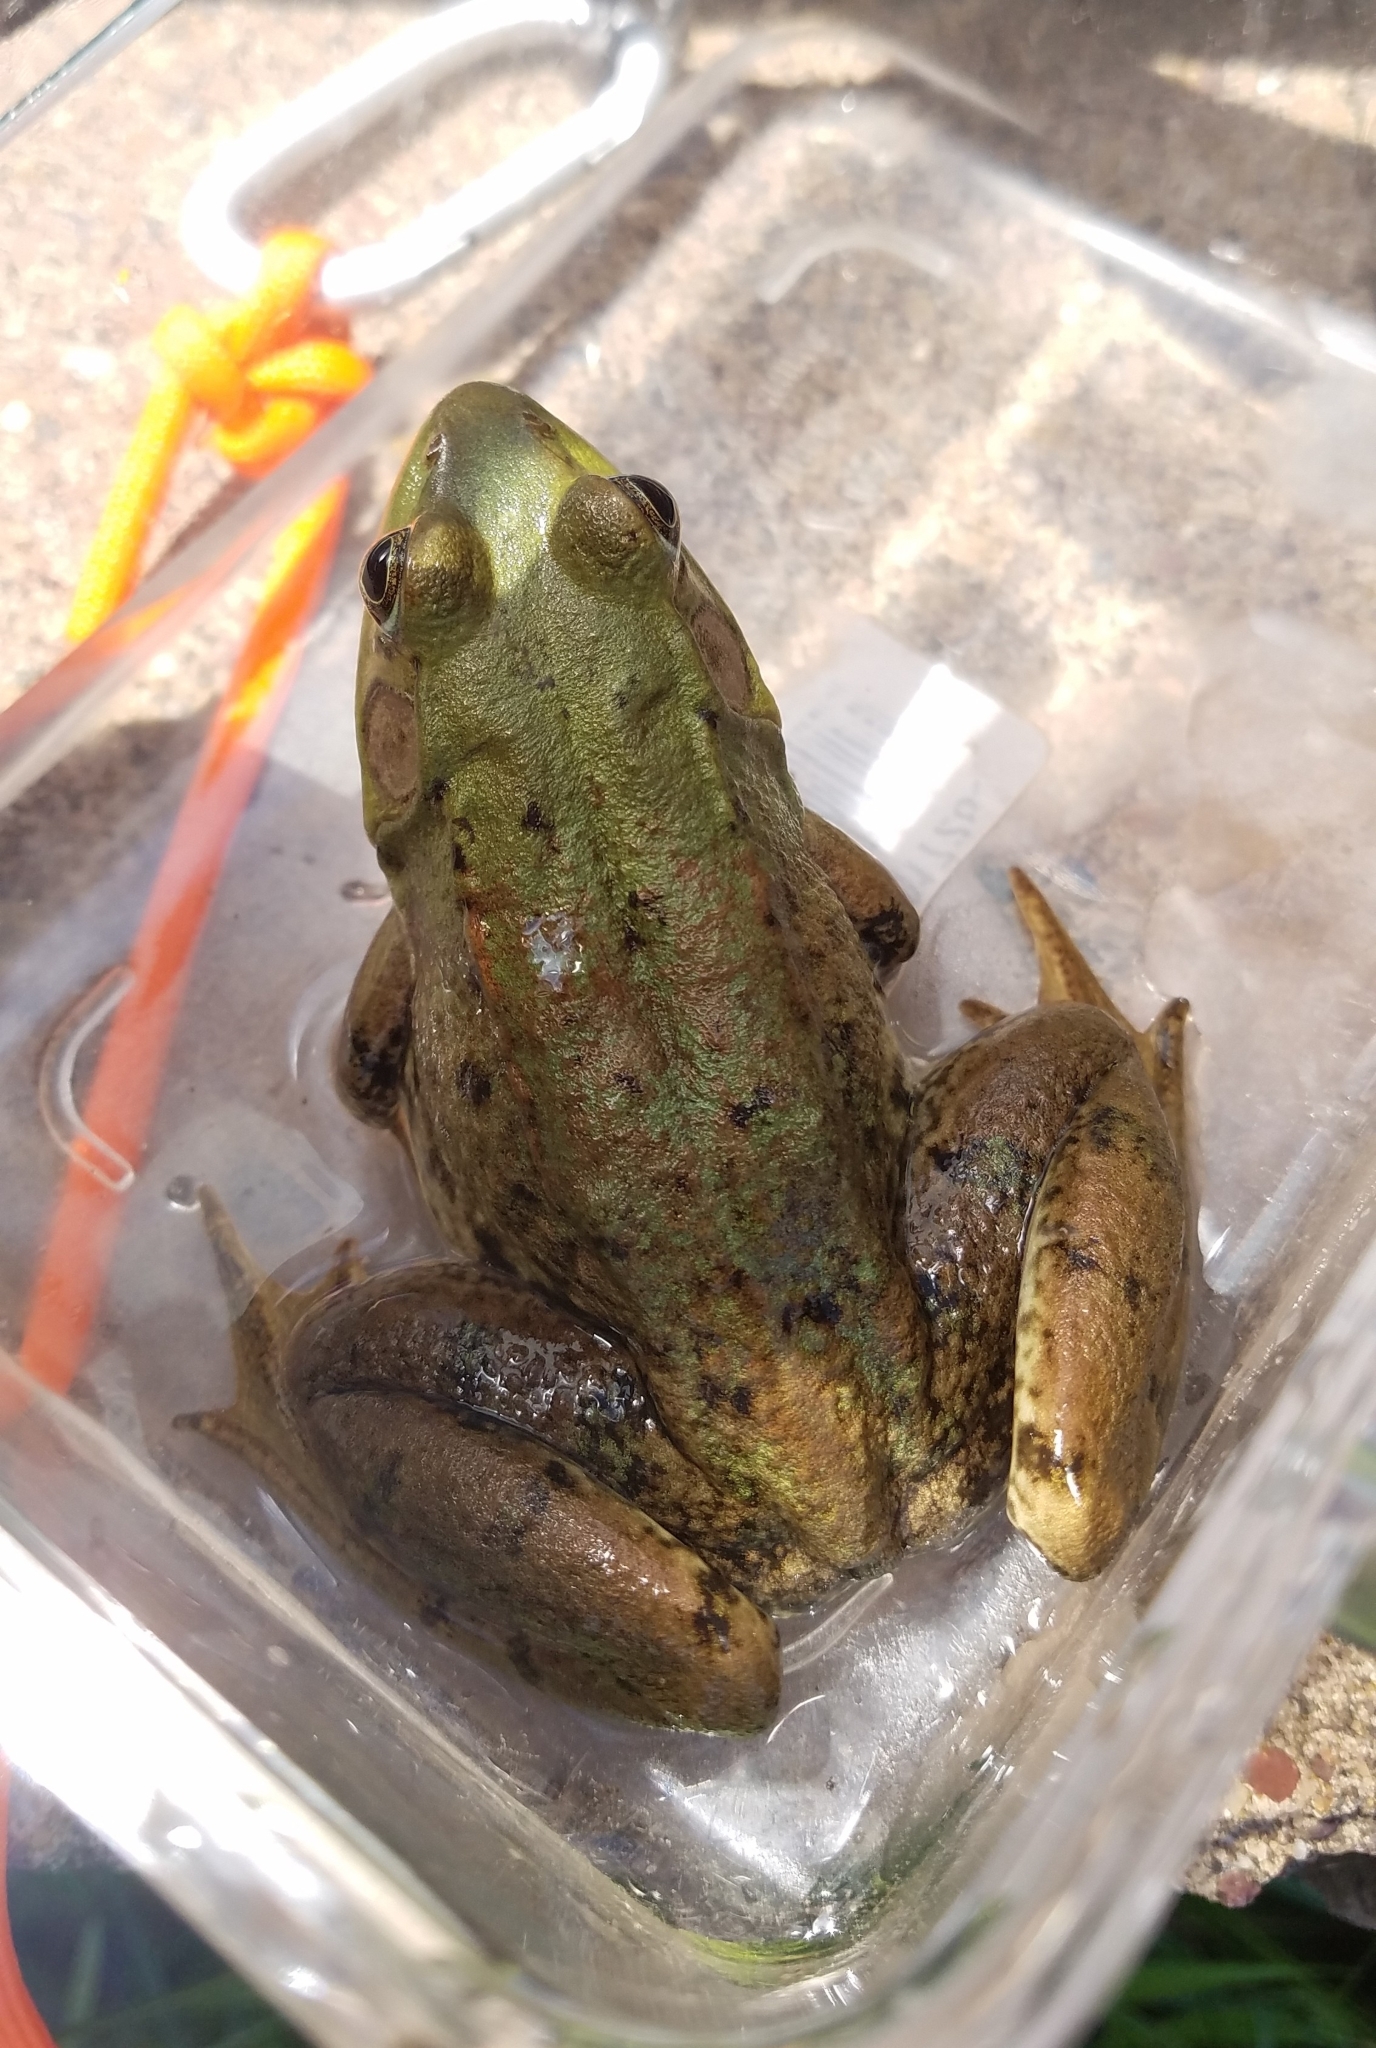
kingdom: Animalia
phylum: Chordata
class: Amphibia
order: Anura
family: Ranidae
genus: Lithobates
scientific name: Lithobates catesbeianus
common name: American bullfrog
